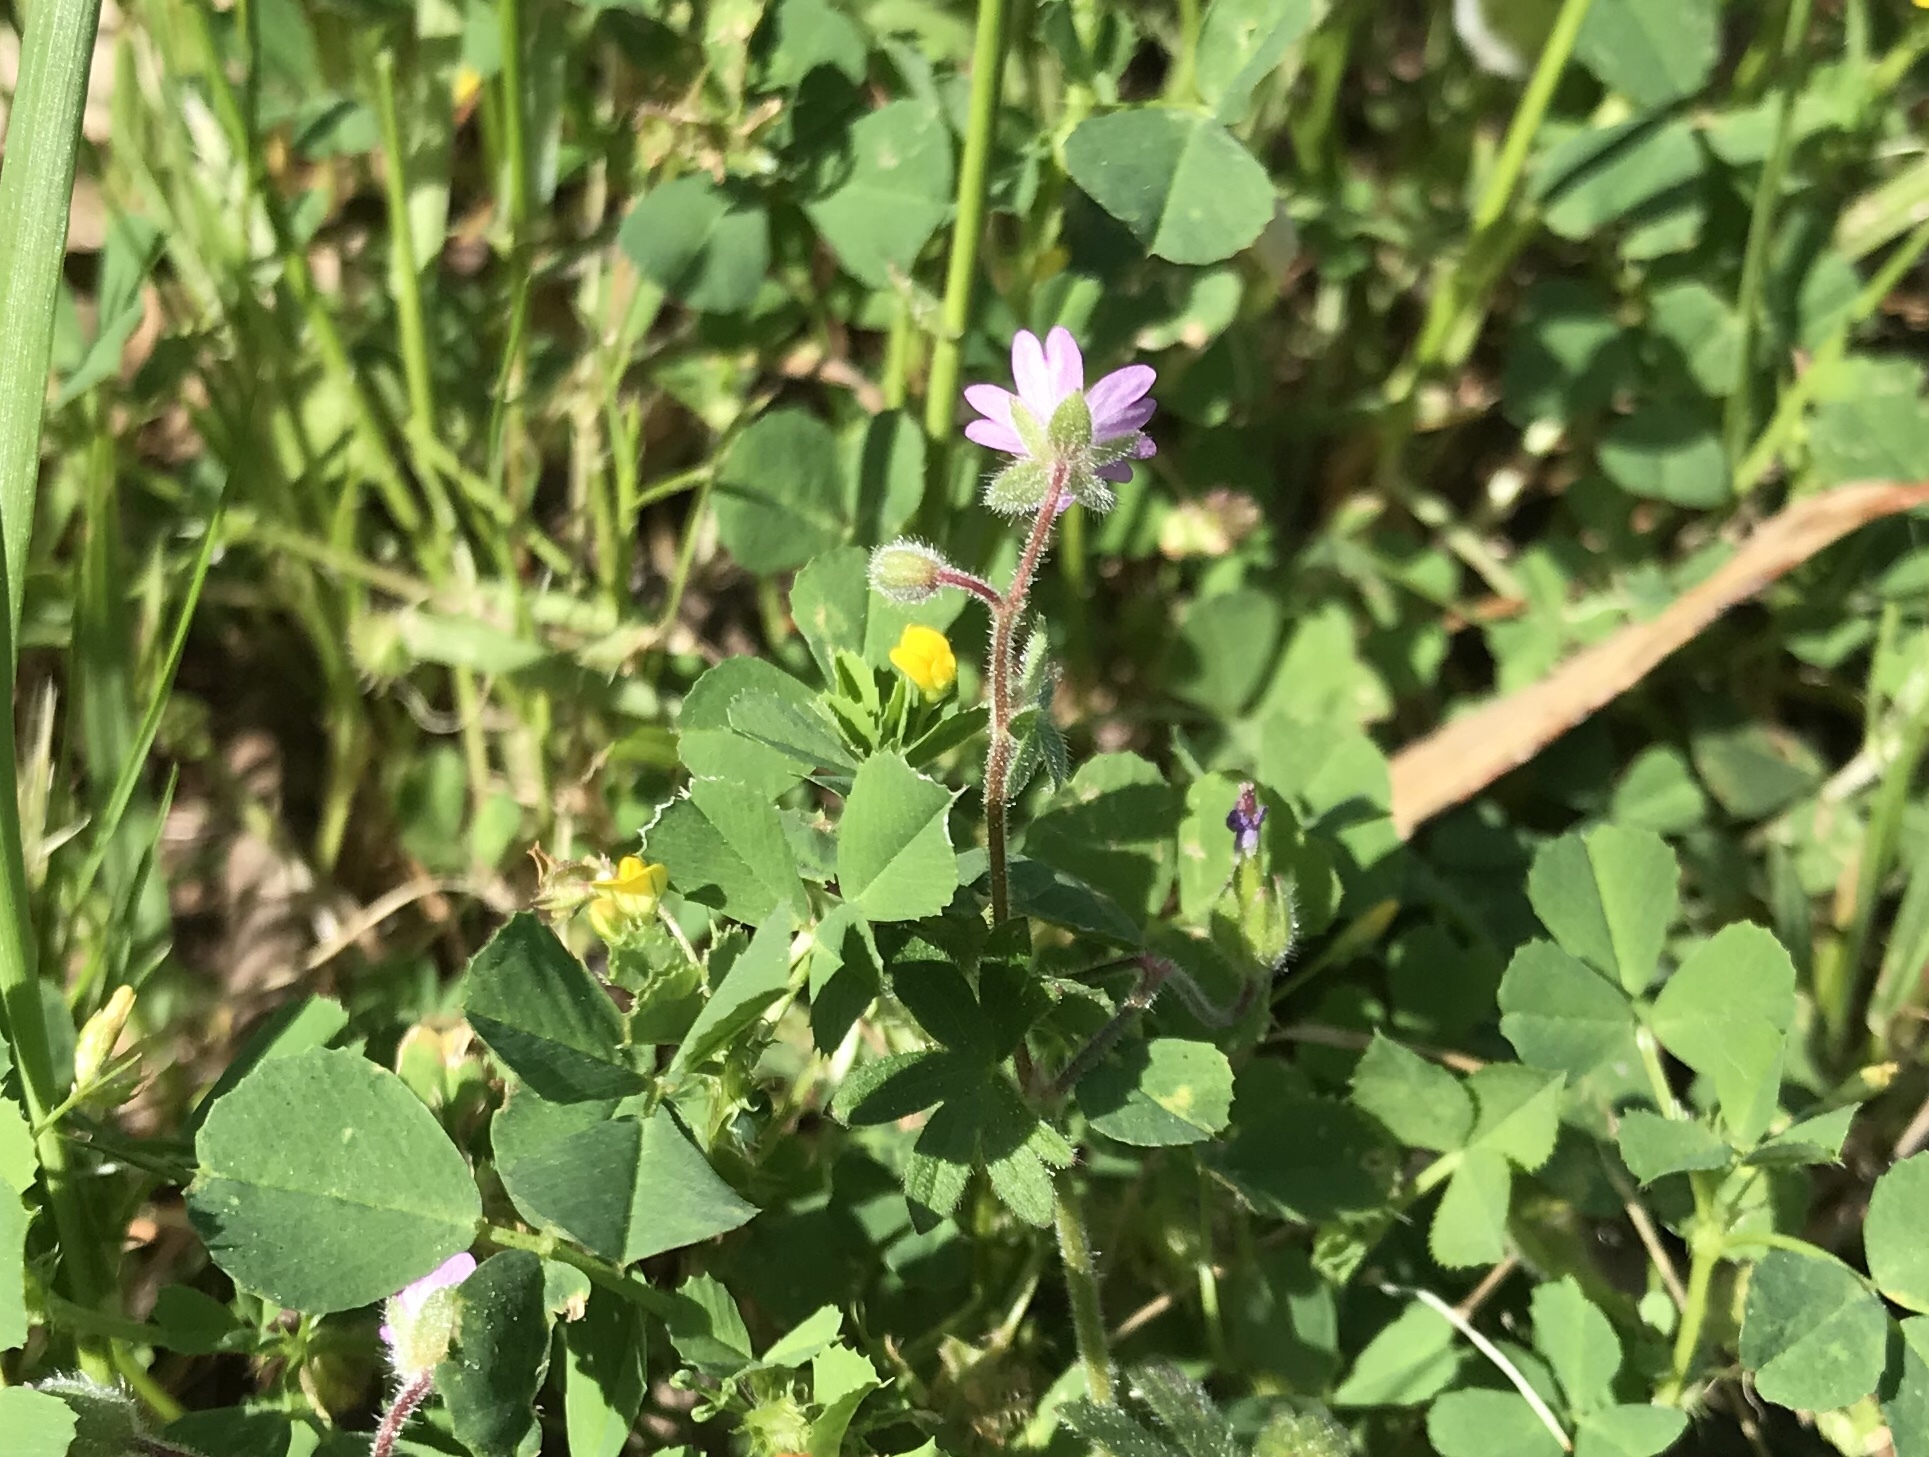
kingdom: Plantae
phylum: Tracheophyta
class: Magnoliopsida
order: Geraniales
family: Geraniaceae
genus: Geranium
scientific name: Geranium molle
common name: Dove's-foot crane's-bill
